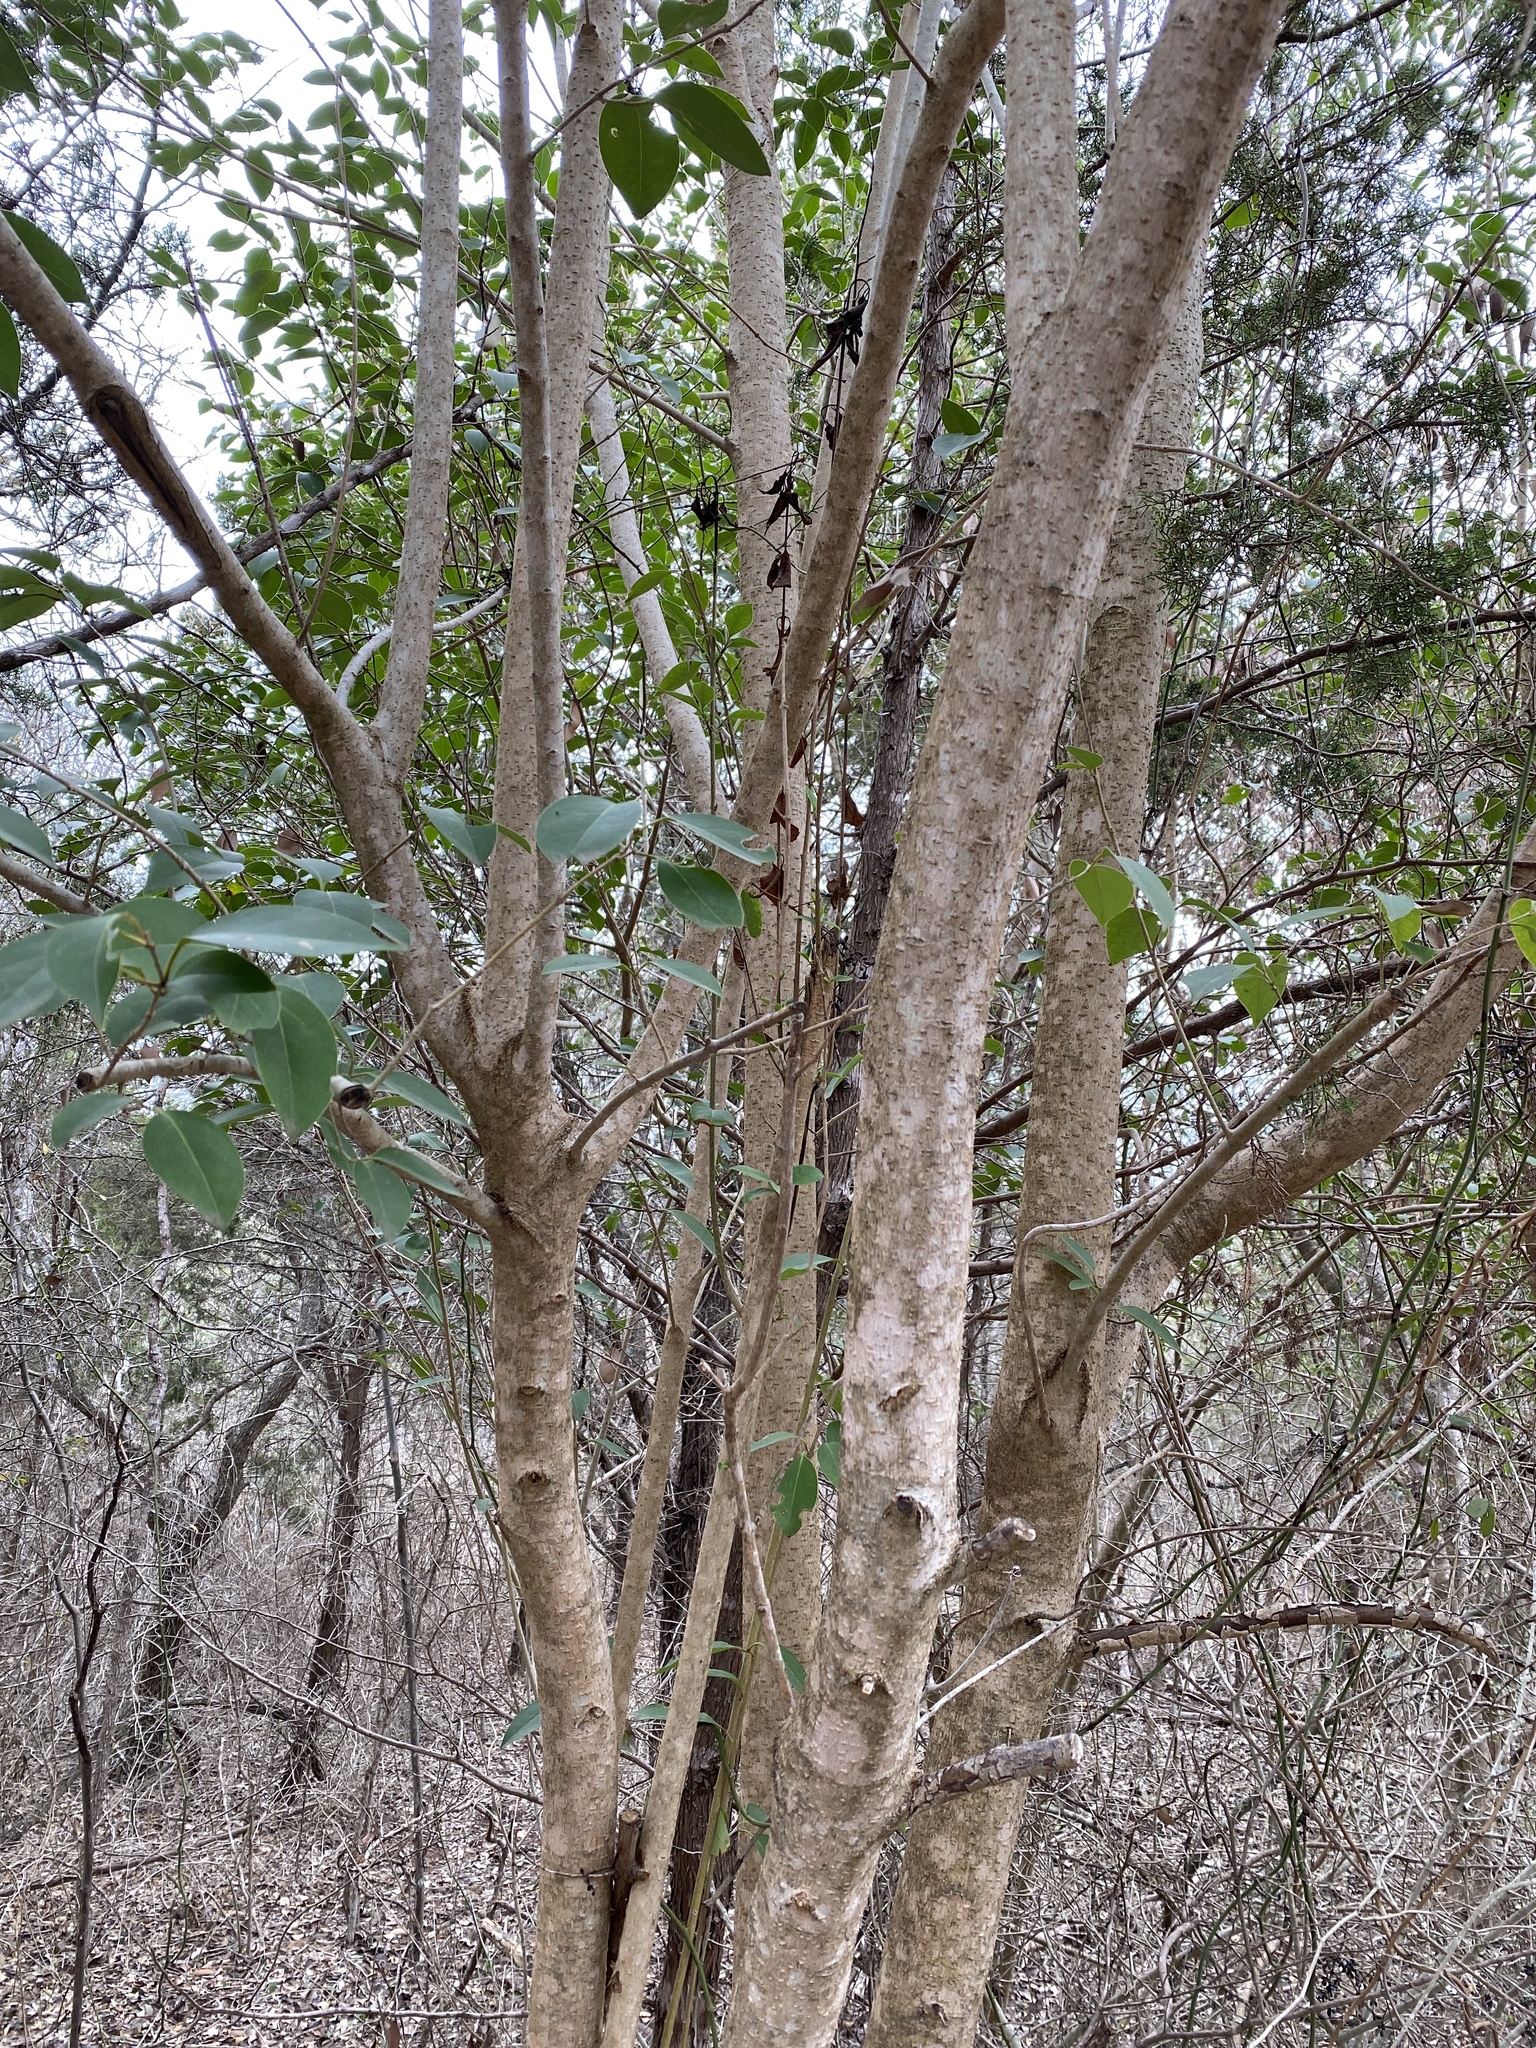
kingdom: Plantae
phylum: Tracheophyta
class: Magnoliopsida
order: Lamiales
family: Oleaceae
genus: Ligustrum
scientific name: Ligustrum lucidum
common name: Glossy privet
